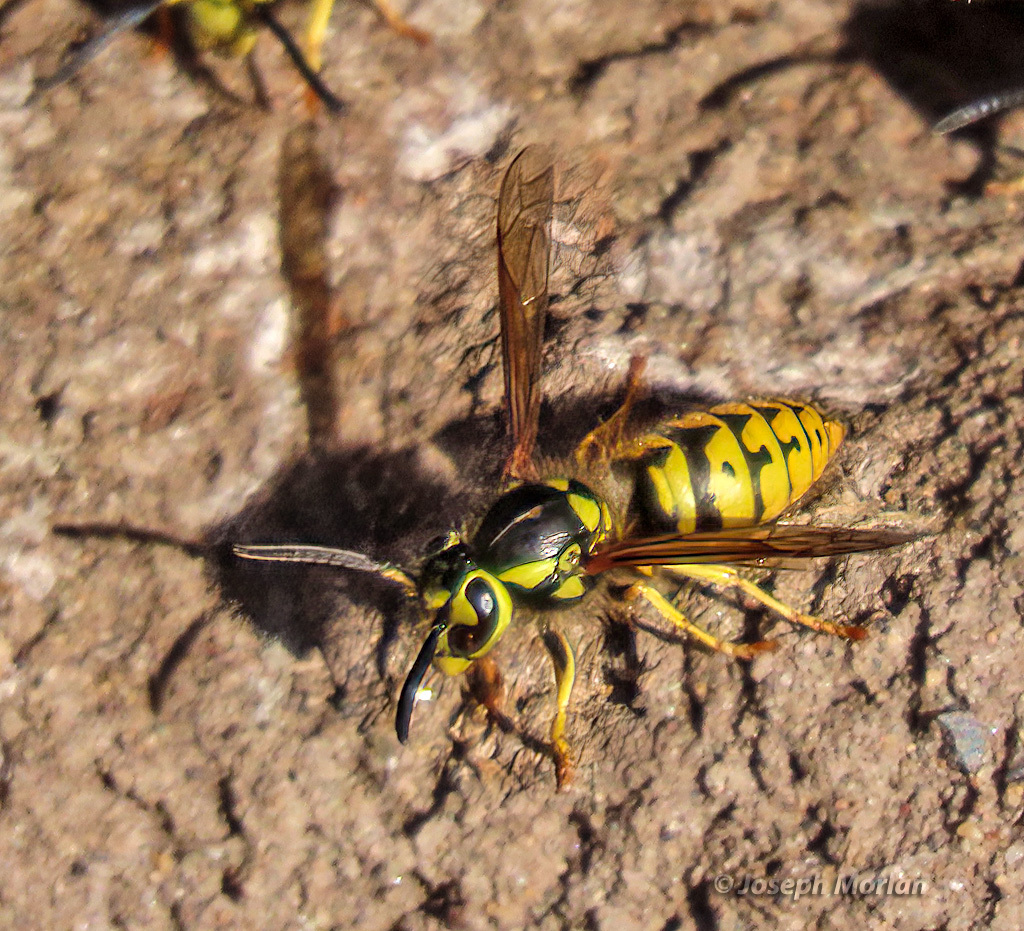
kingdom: Animalia
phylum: Arthropoda
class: Insecta
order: Hymenoptera
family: Vespidae
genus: Vespula
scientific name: Vespula pensylvanica
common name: Western yellowjacket
